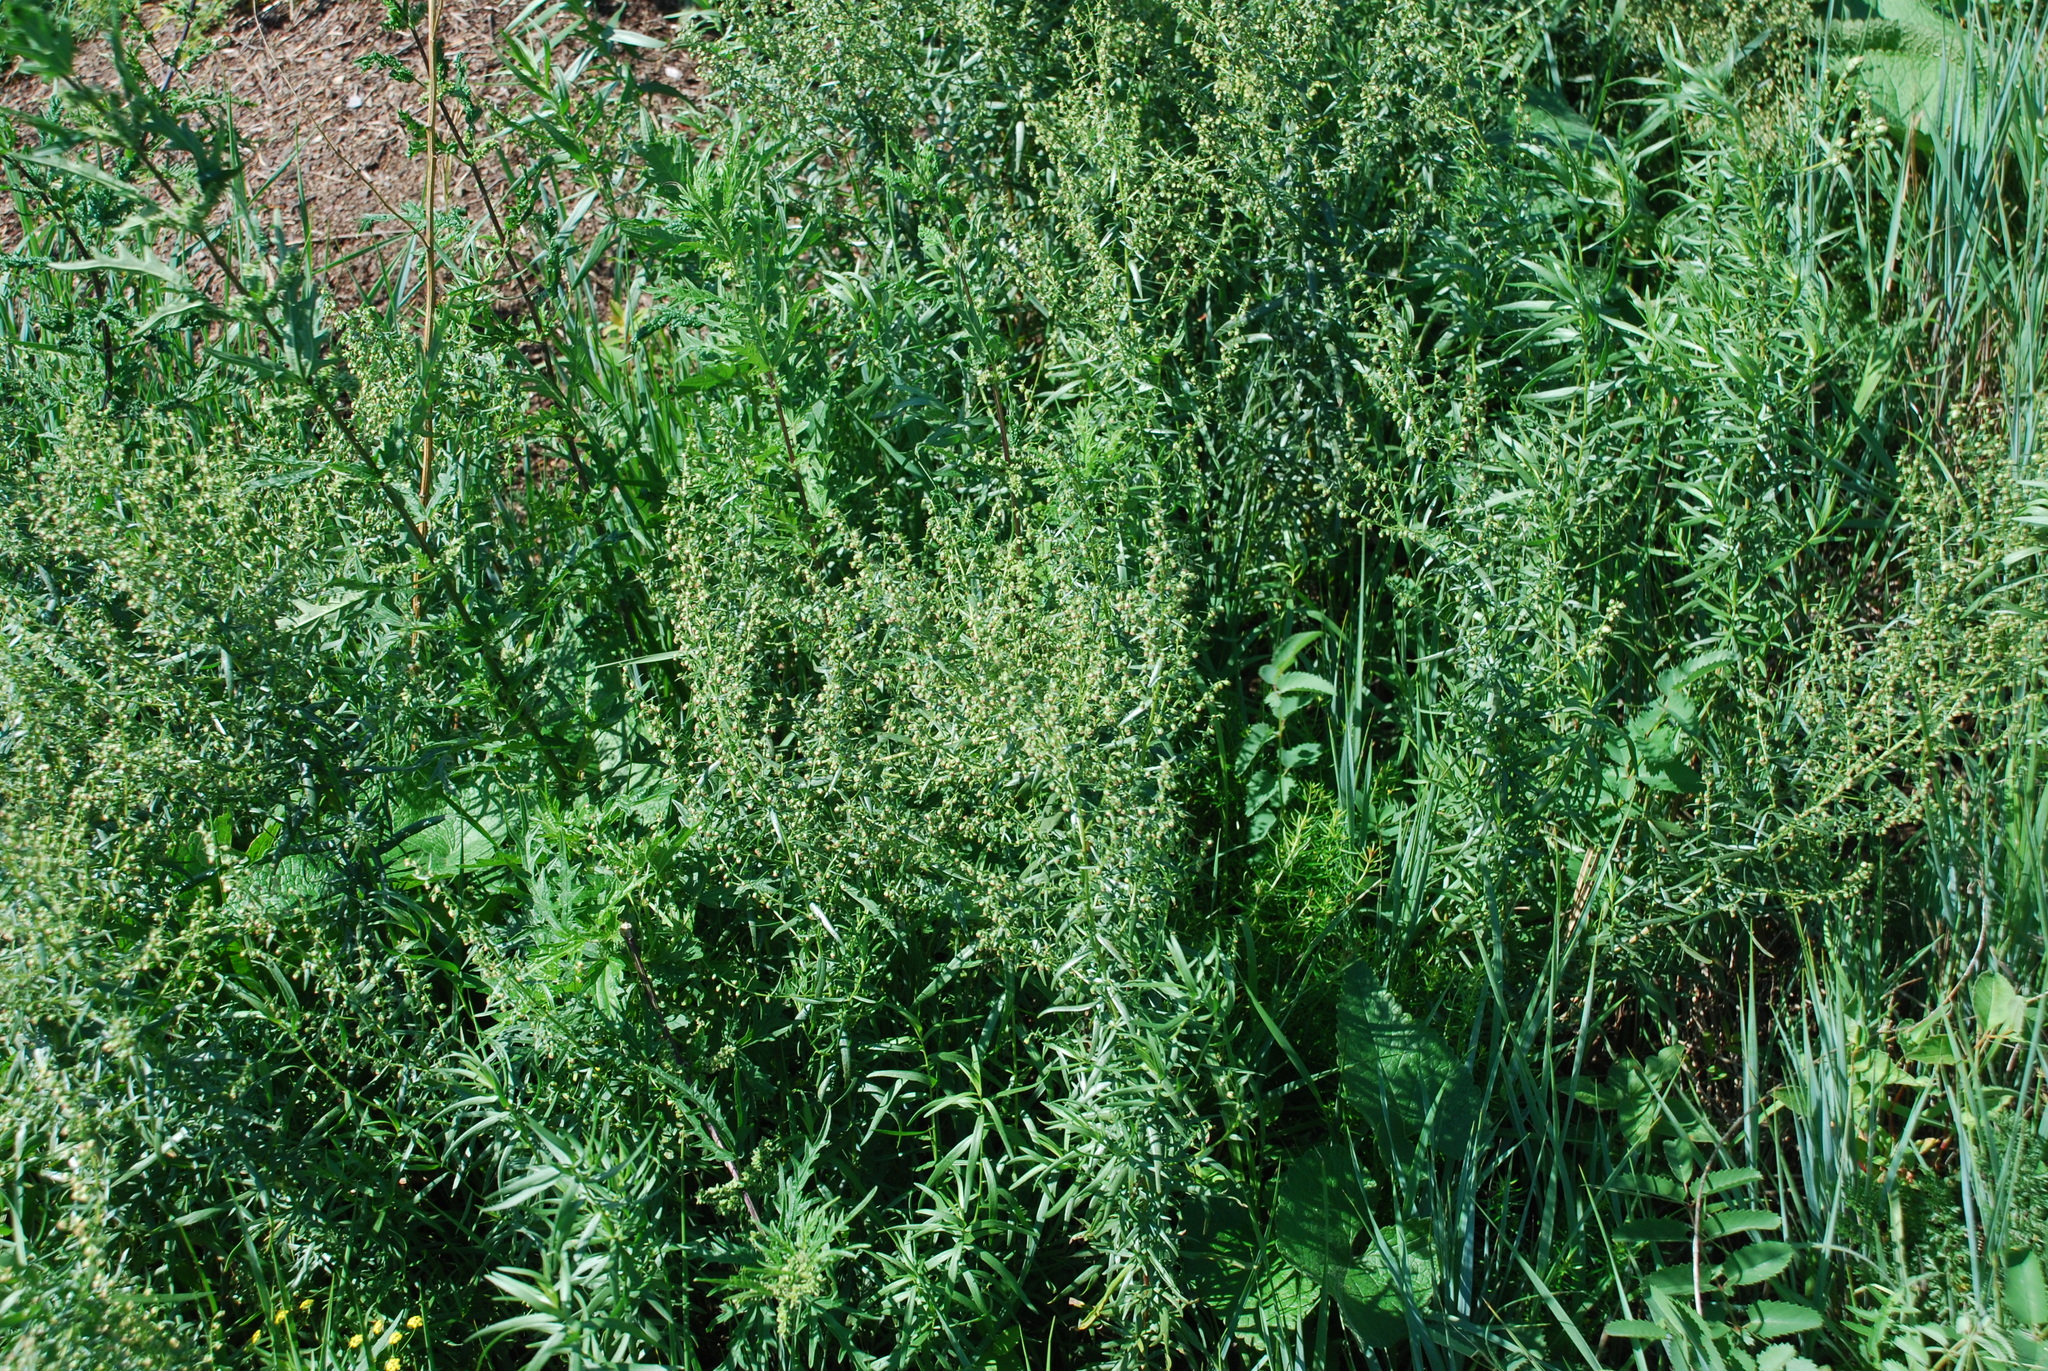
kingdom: Plantae
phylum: Tracheophyta
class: Magnoliopsida
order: Asterales
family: Asteraceae
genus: Artemisia
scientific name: Artemisia dracunculus
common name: Tarragon
